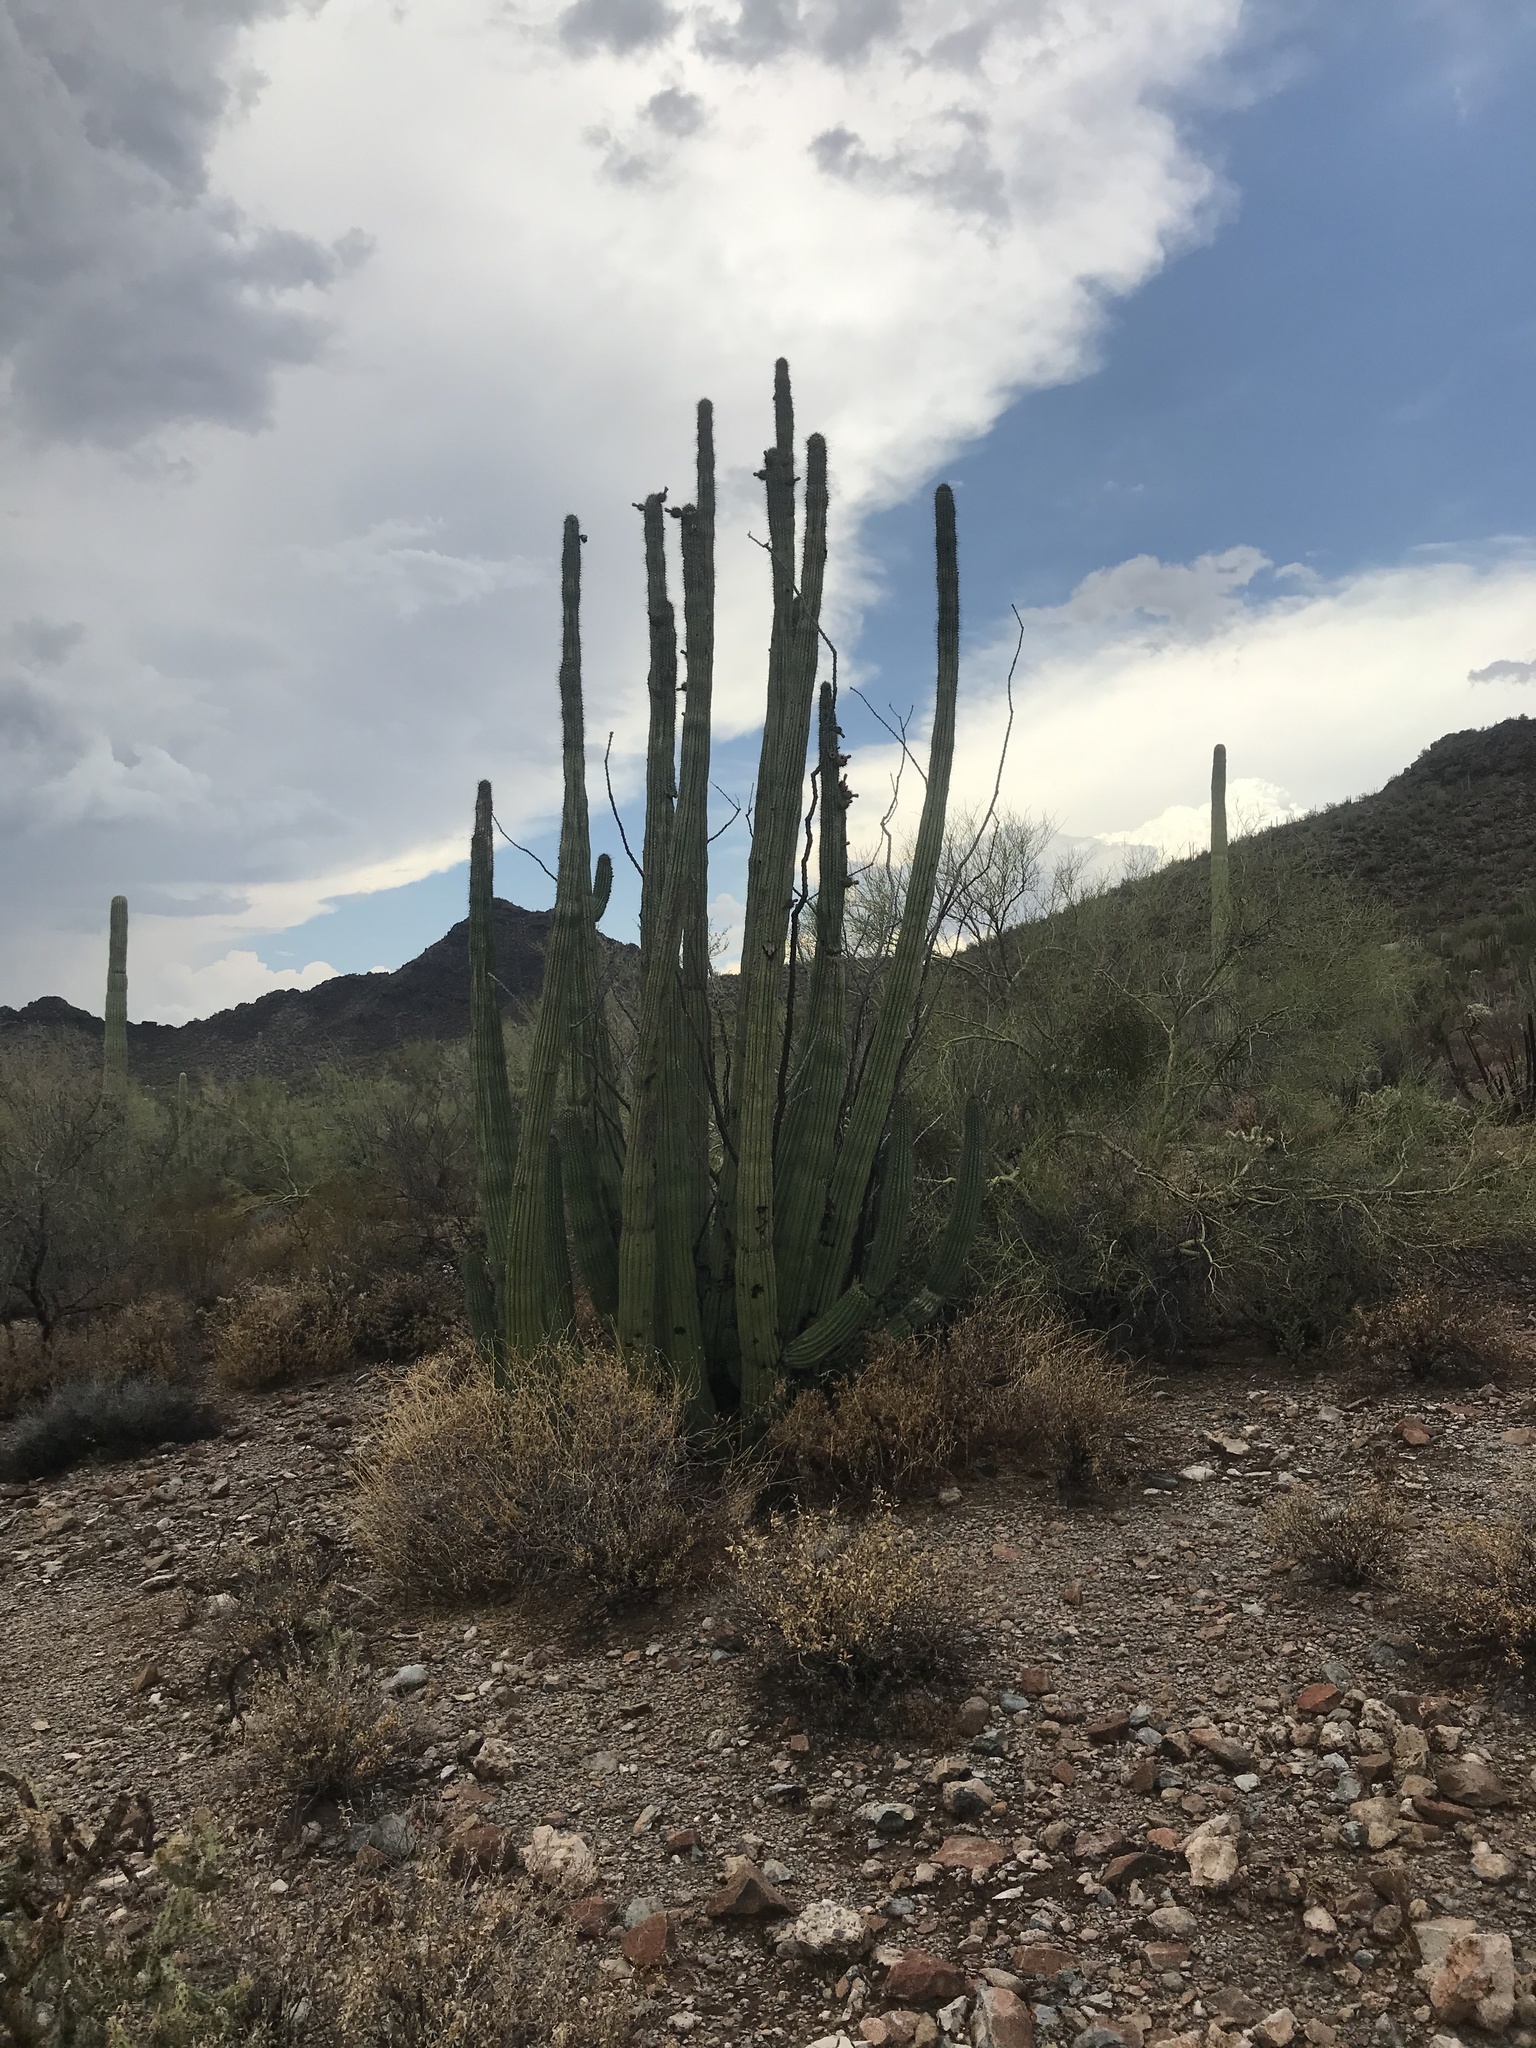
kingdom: Plantae
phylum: Tracheophyta
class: Magnoliopsida
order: Caryophyllales
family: Cactaceae
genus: Stenocereus
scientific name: Stenocereus thurberi
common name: Organ pipe cactus
